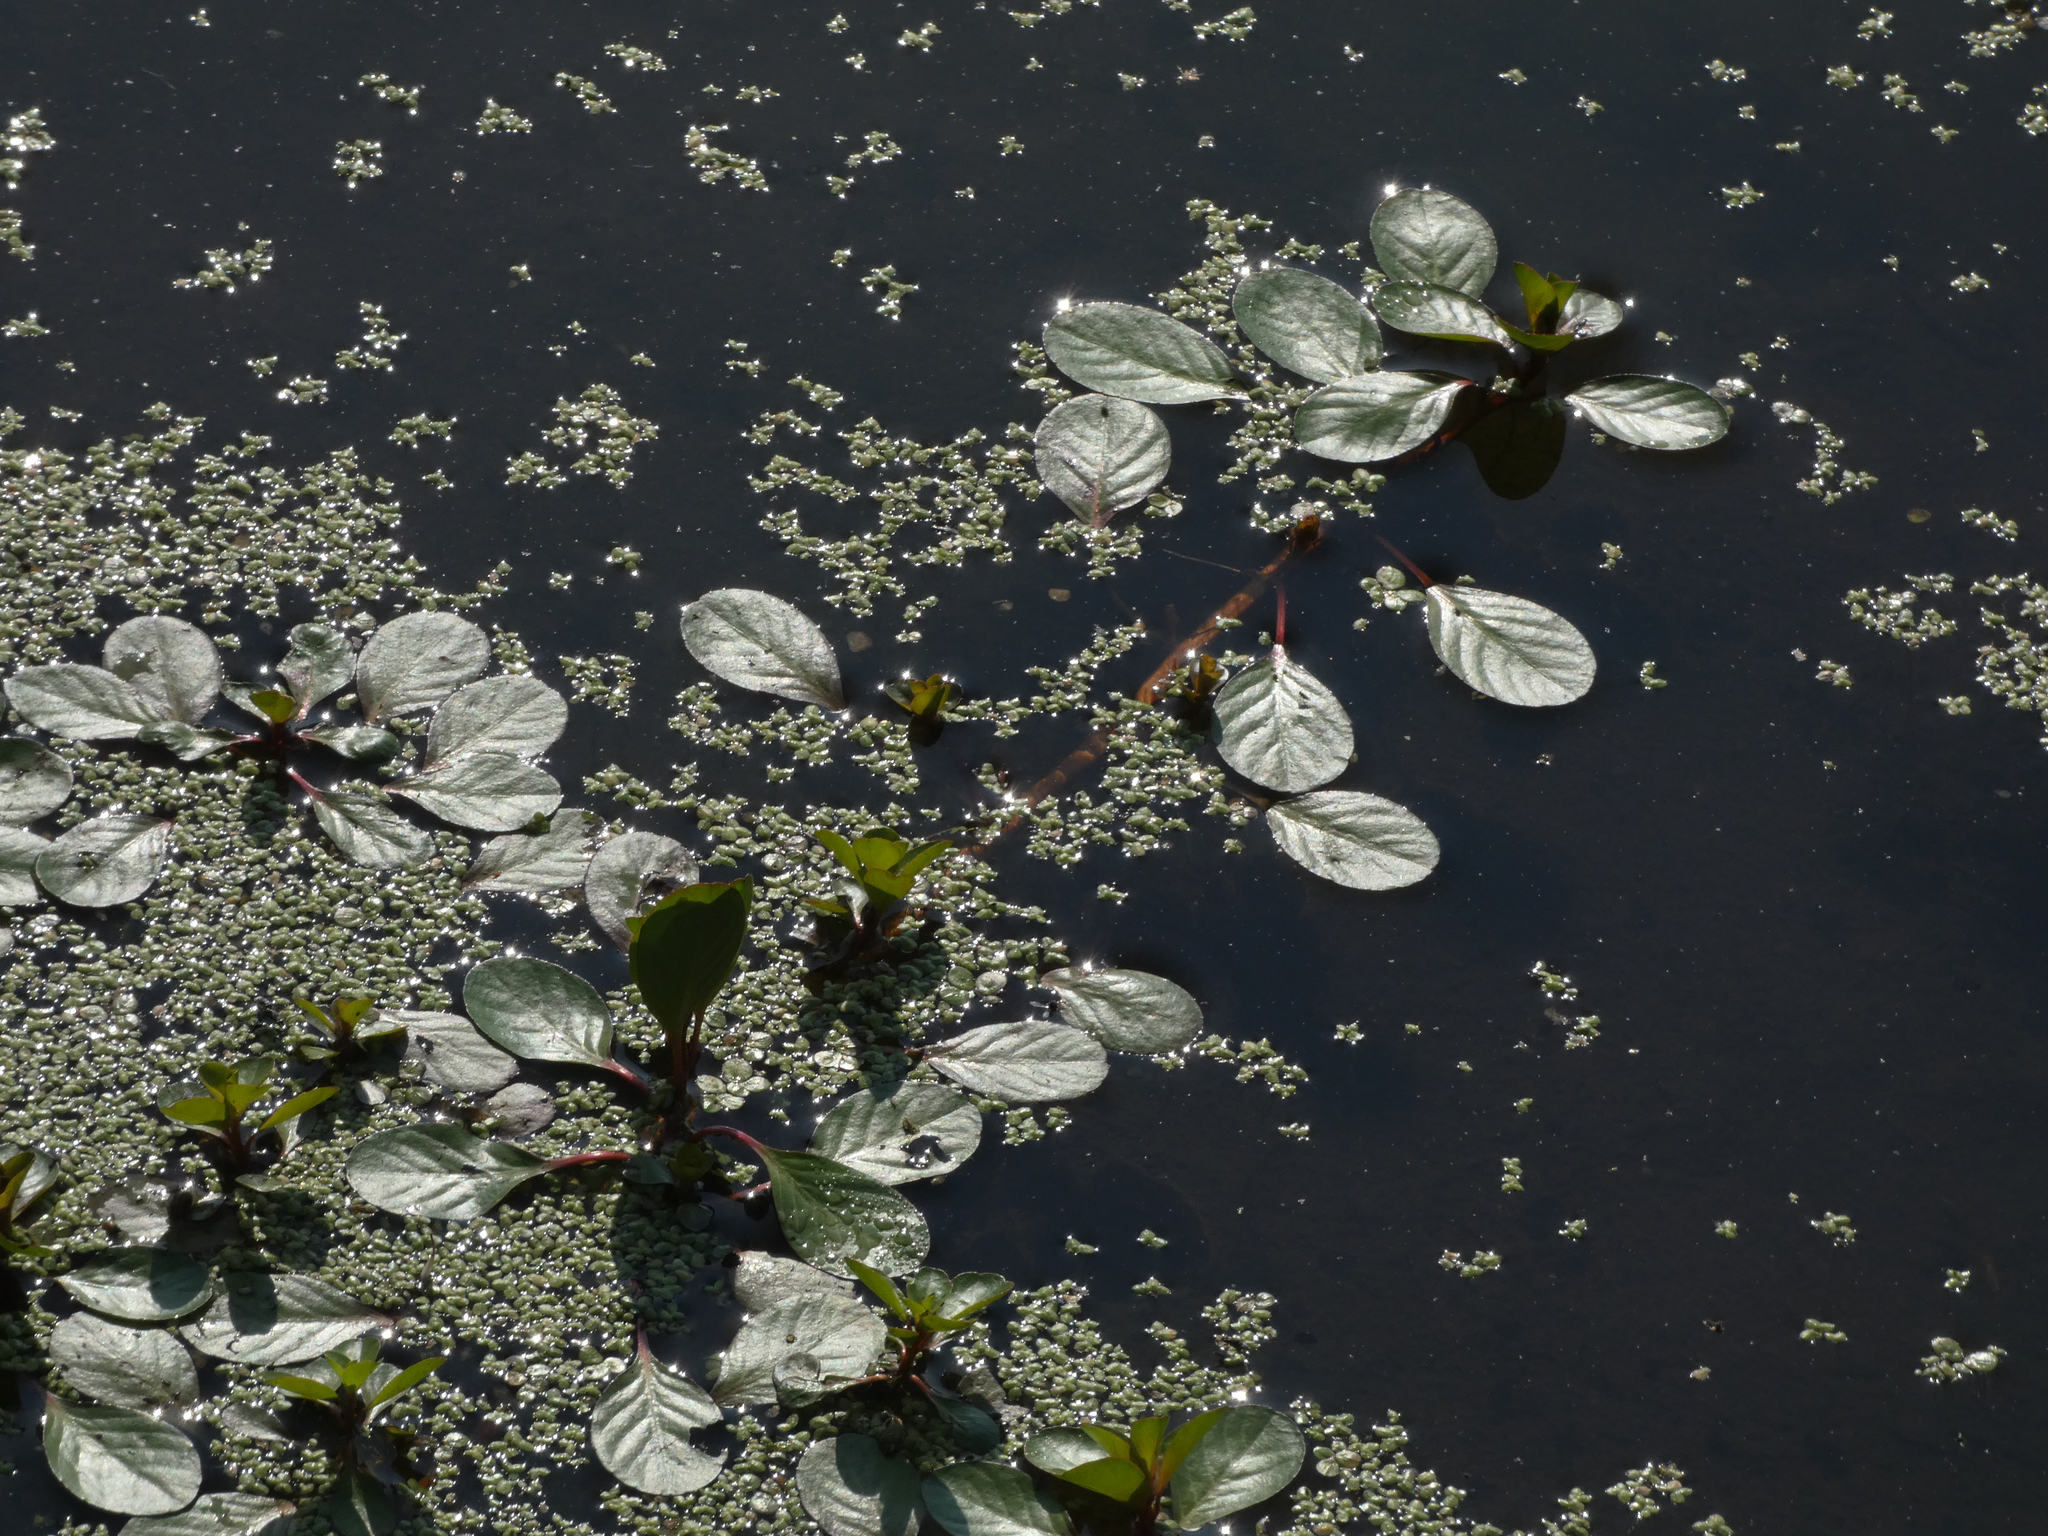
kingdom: Plantae
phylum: Tracheophyta
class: Magnoliopsida
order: Myrtales
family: Onagraceae
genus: Ludwigia
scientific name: Ludwigia peploides
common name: Floating primrose-willow
